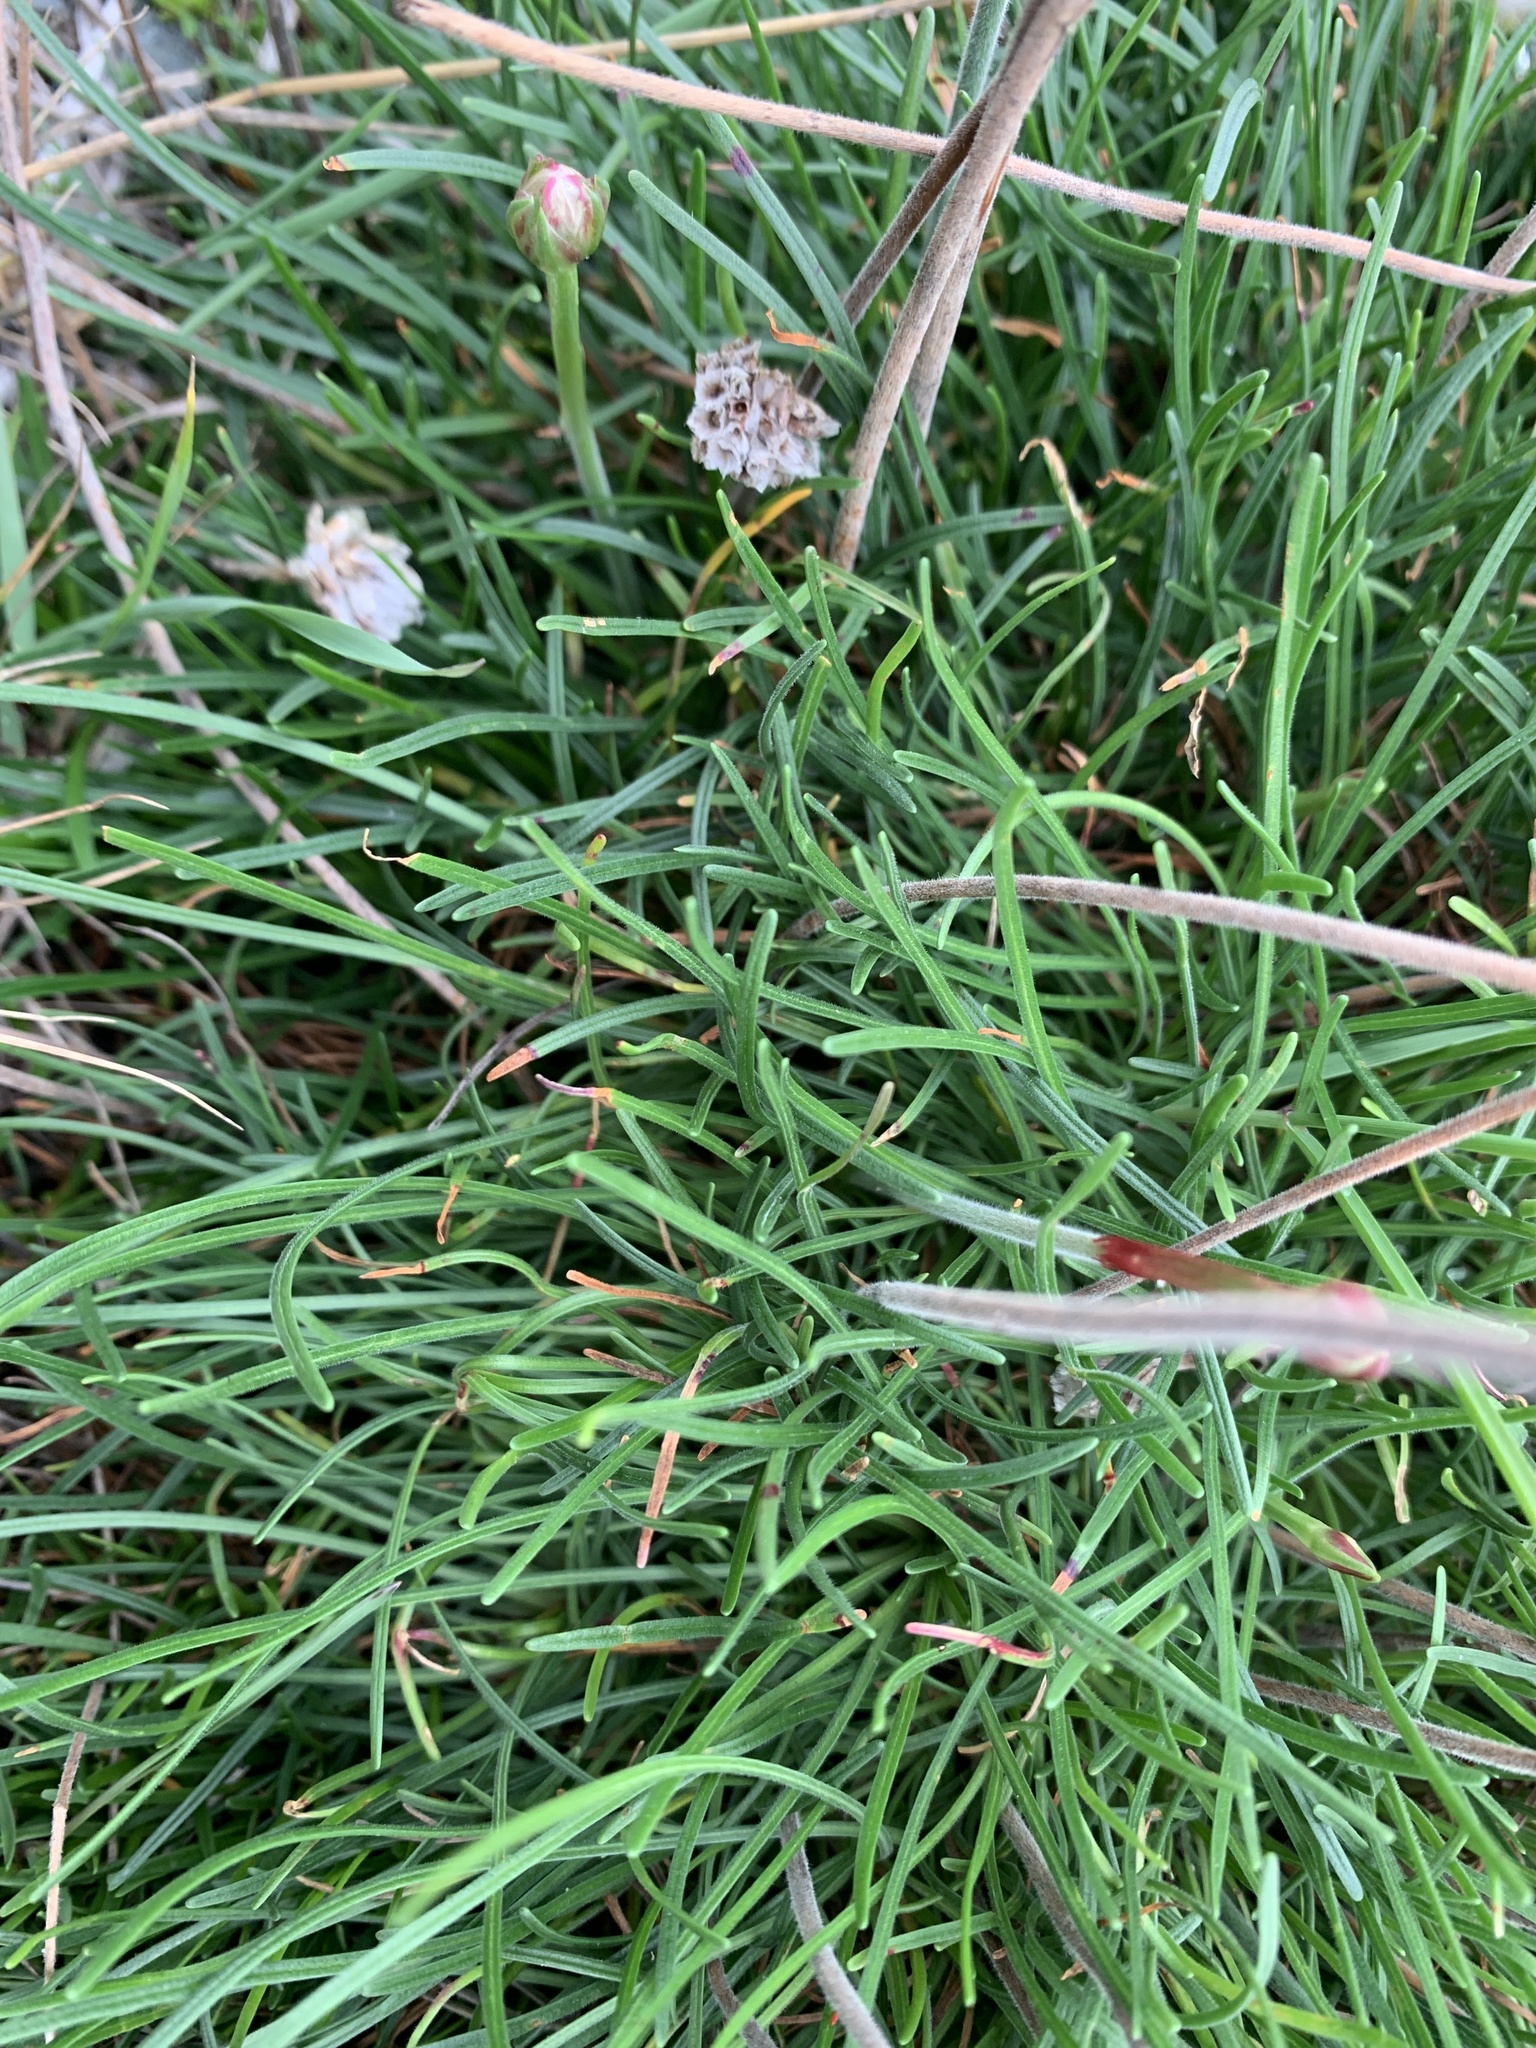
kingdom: Plantae
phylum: Tracheophyta
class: Magnoliopsida
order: Caryophyllales
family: Plumbaginaceae
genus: Armeria
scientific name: Armeria maritima
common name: Thrift
